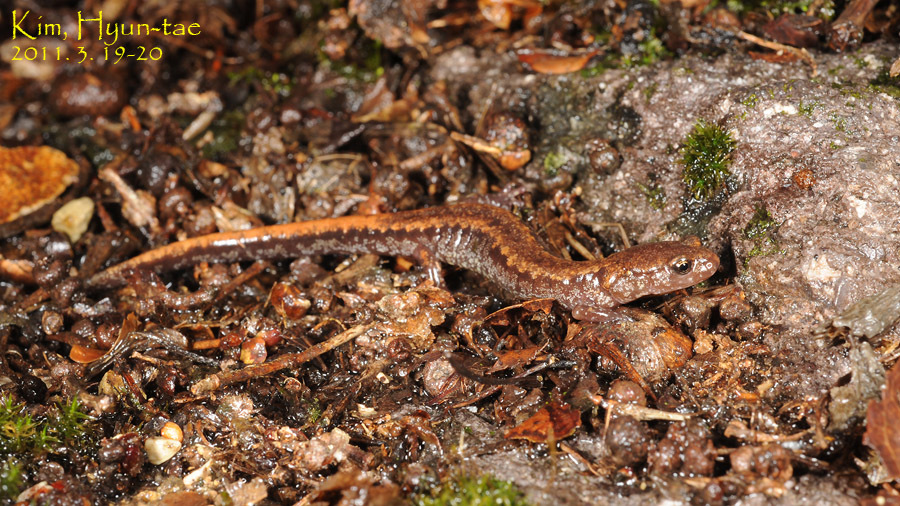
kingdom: Animalia
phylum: Chordata
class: Amphibia
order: Caudata
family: Plethodontidae
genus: Karsenia
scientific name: Karsenia koreana
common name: Korean crevice salamander
